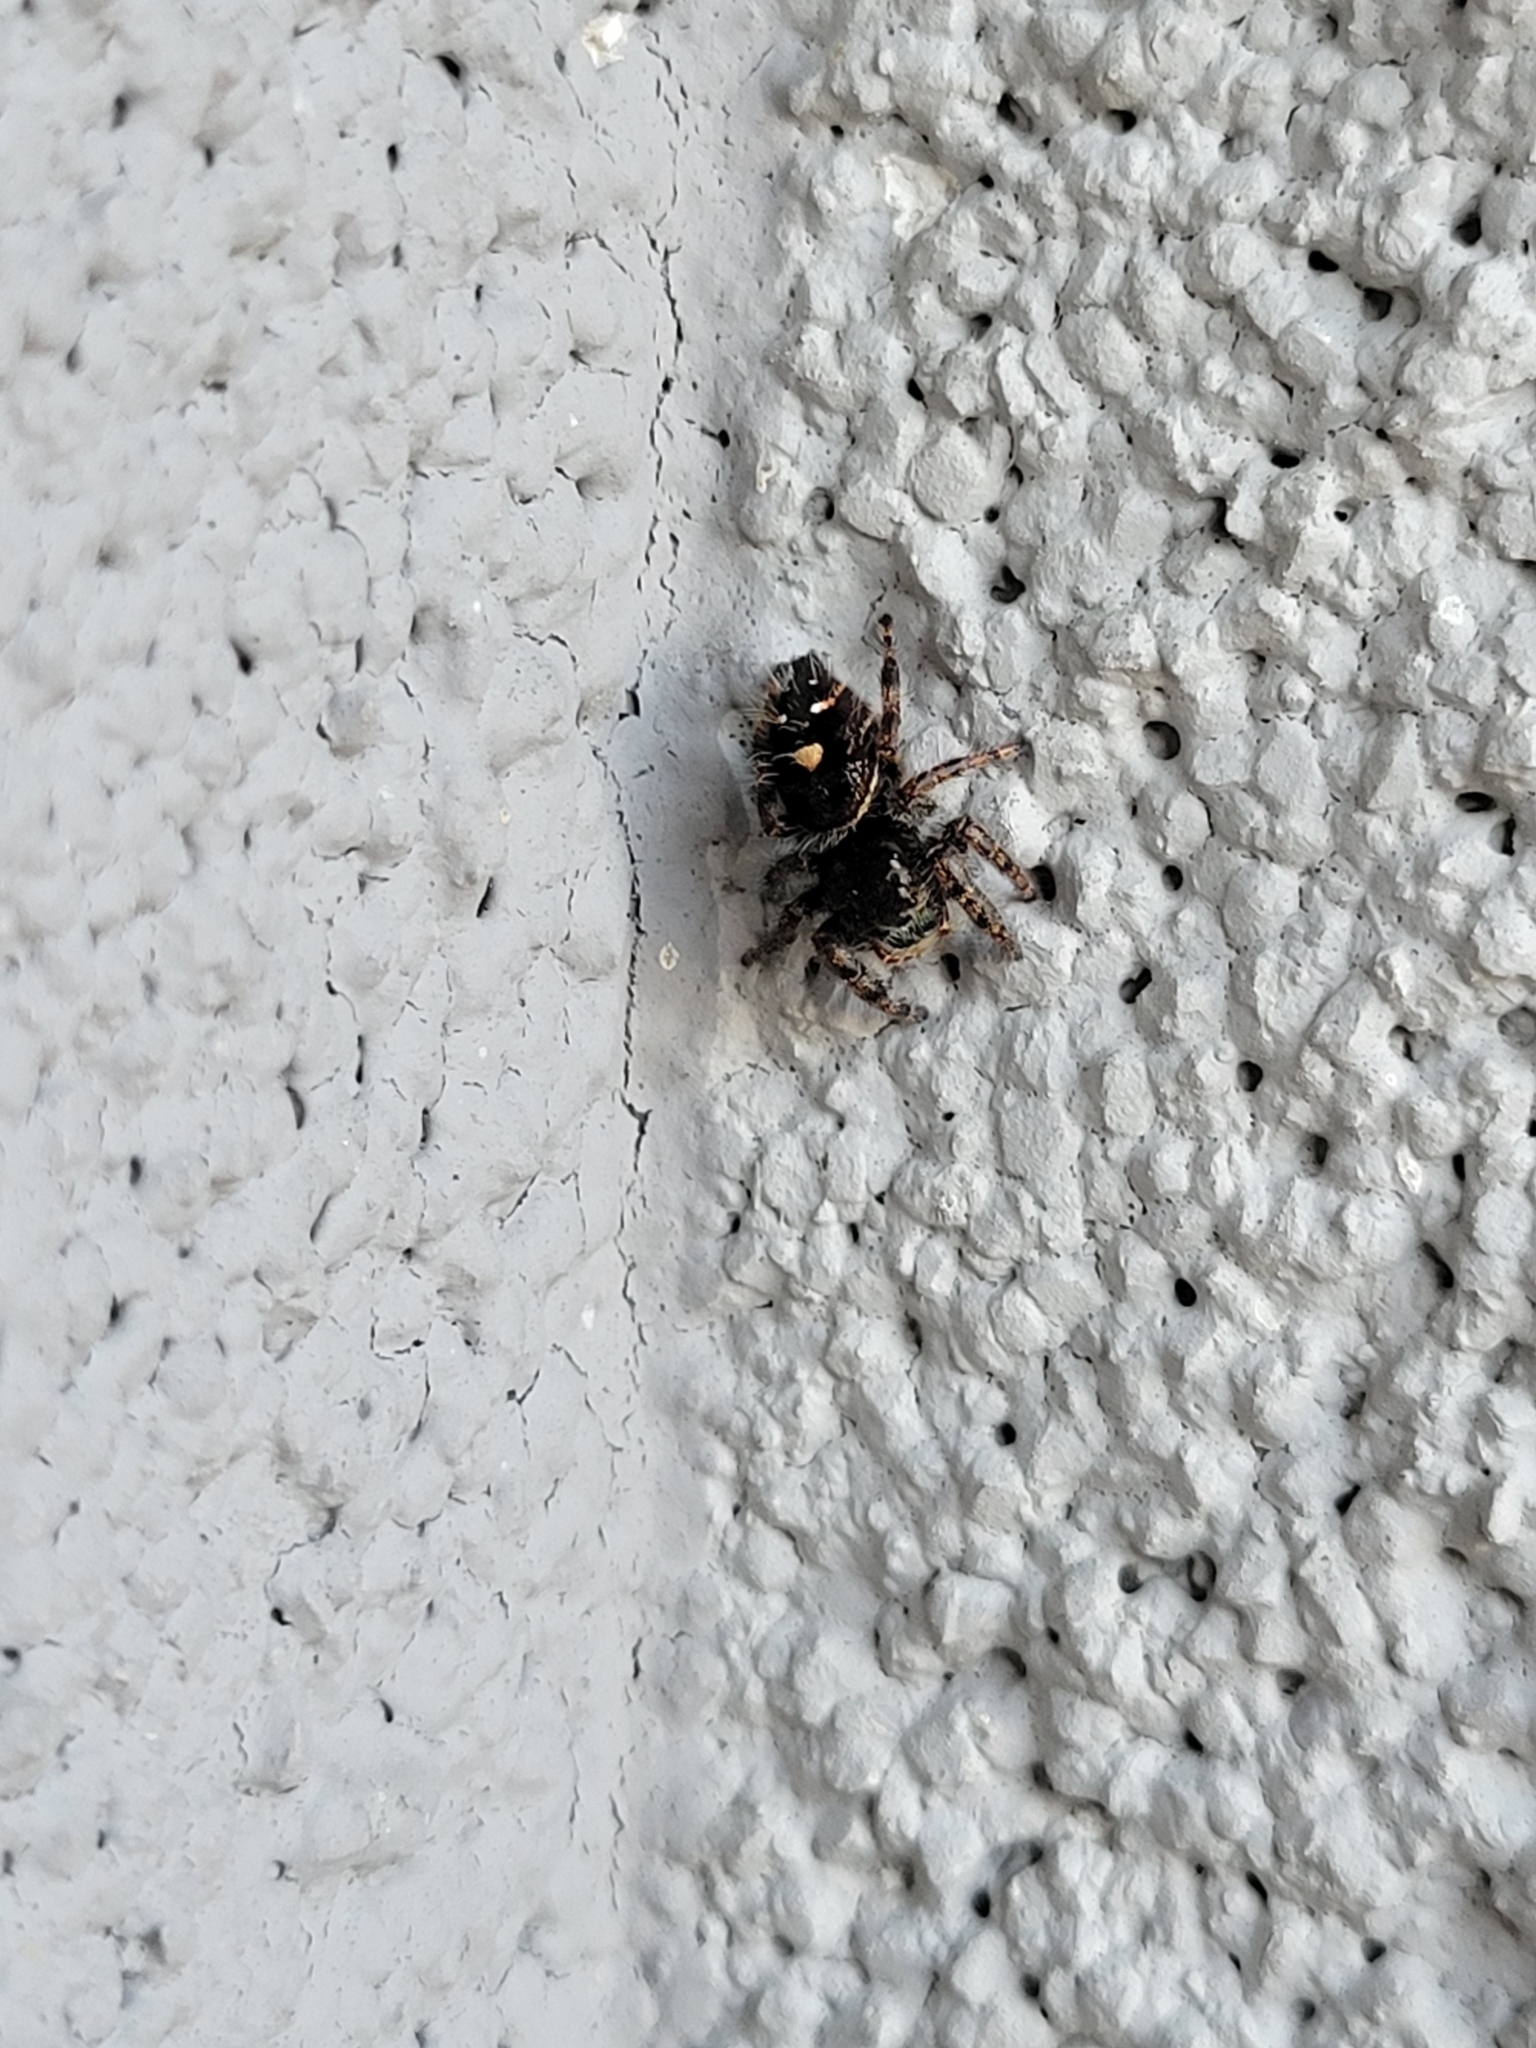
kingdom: Animalia
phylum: Arthropoda
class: Arachnida
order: Araneae
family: Salticidae
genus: Phidippus
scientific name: Phidippus audax
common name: Bold jumper
